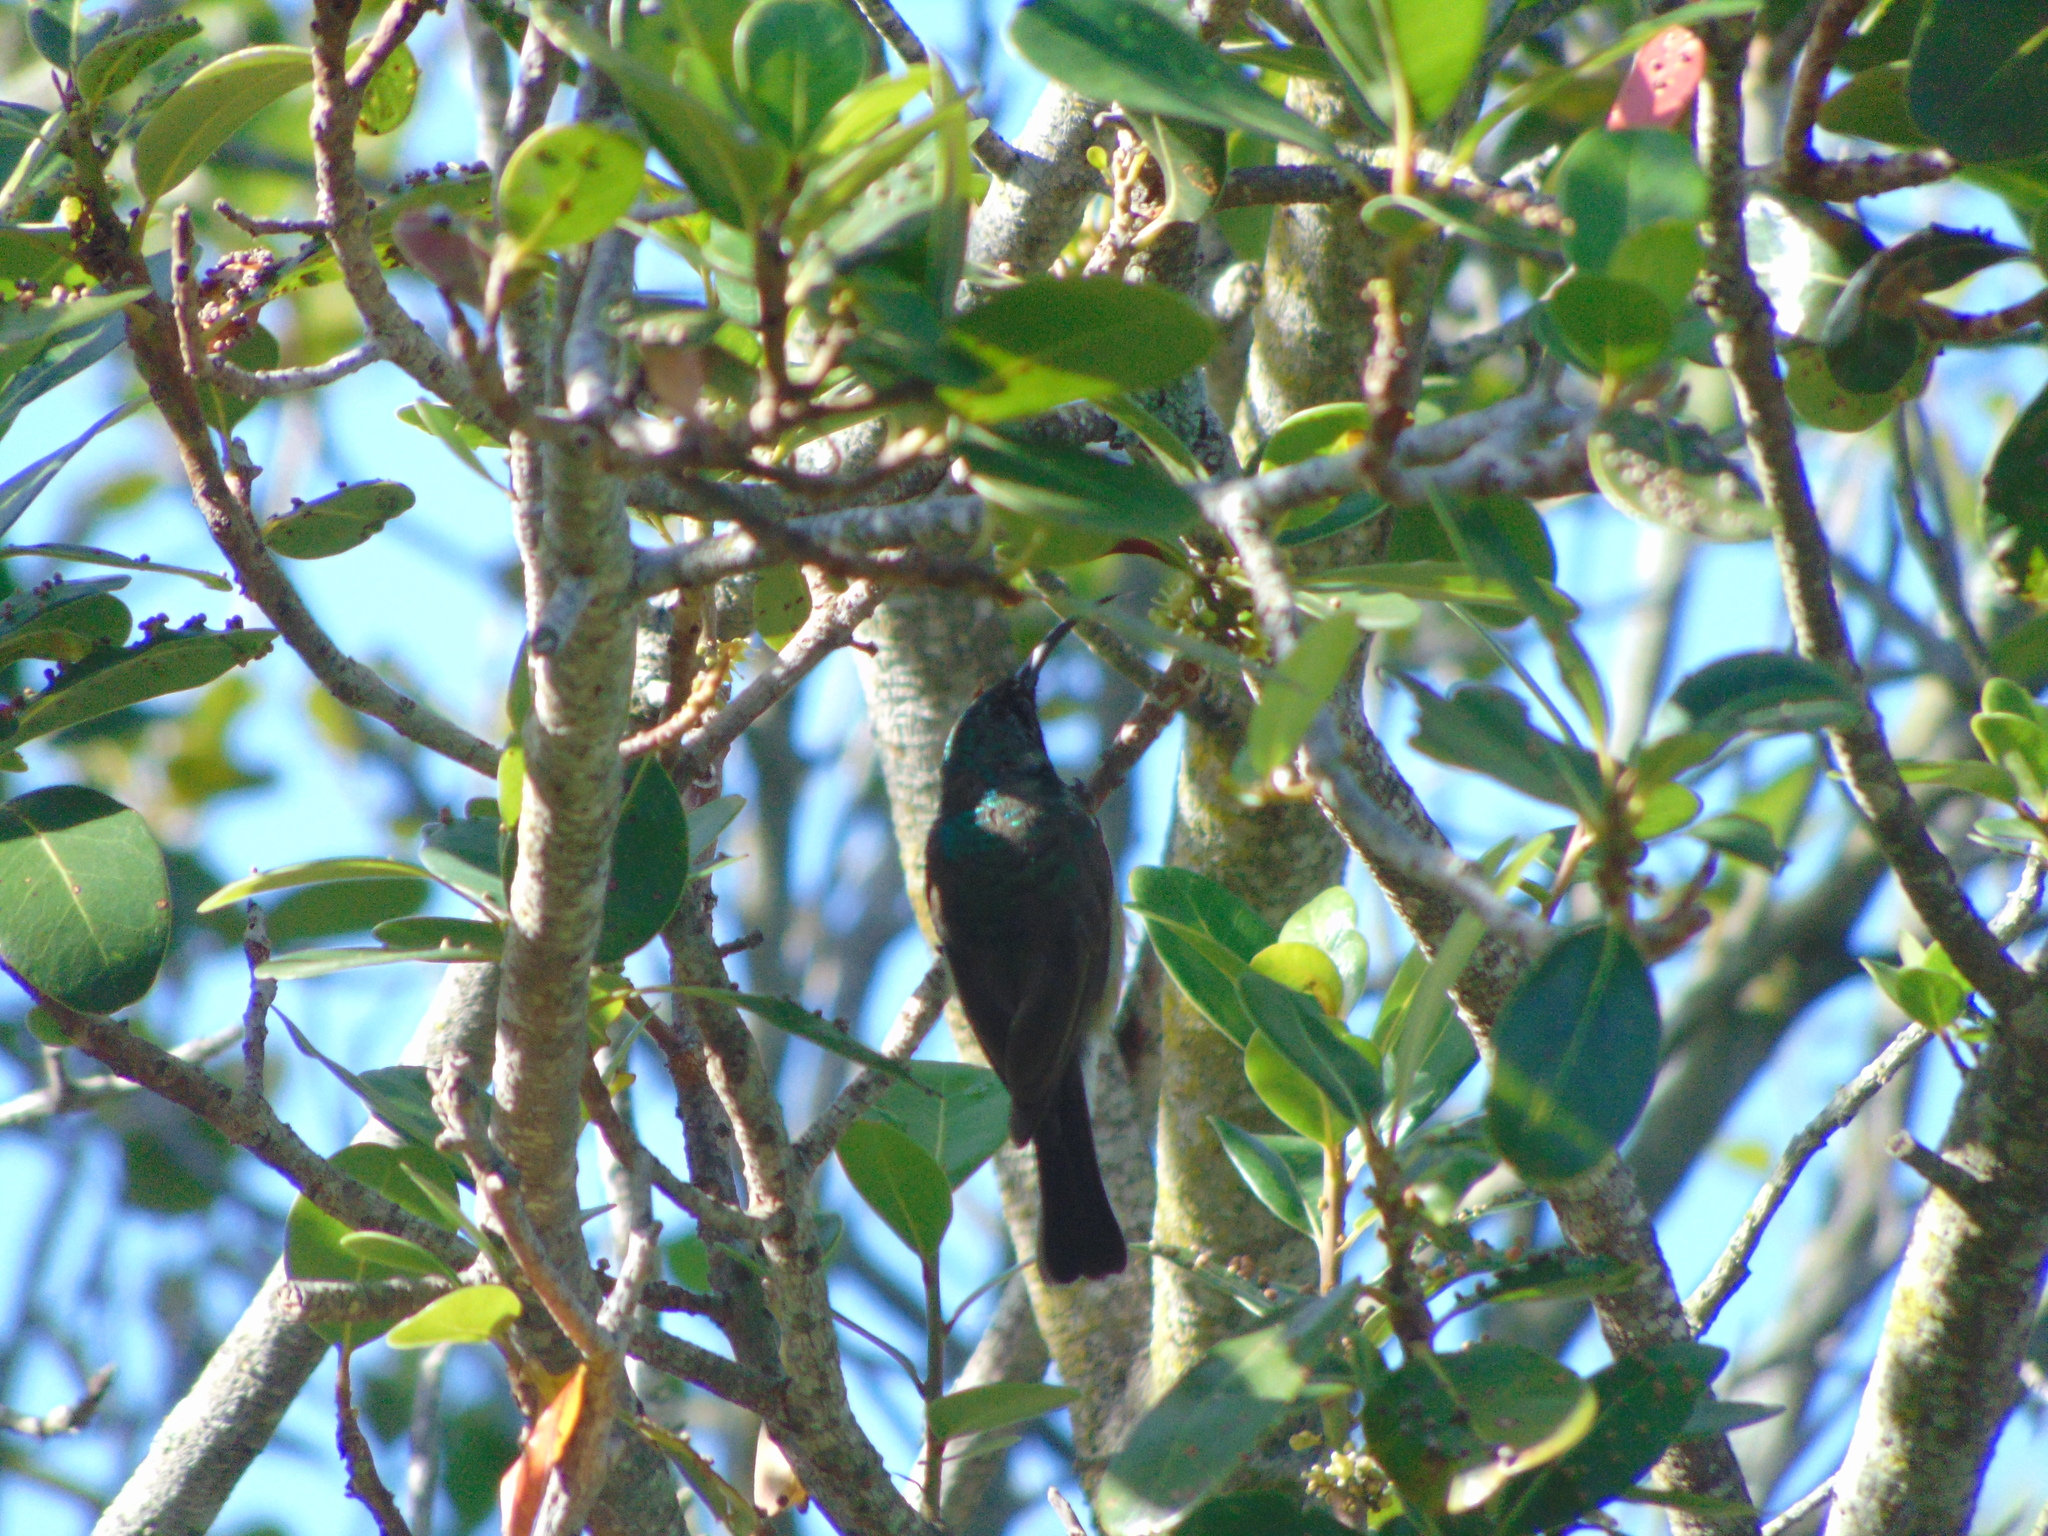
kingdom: Animalia
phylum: Chordata
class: Aves
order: Passeriformes
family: Nectariniidae
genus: Cinnyris
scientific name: Cinnyris afer
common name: Greater double-collared sunbird
